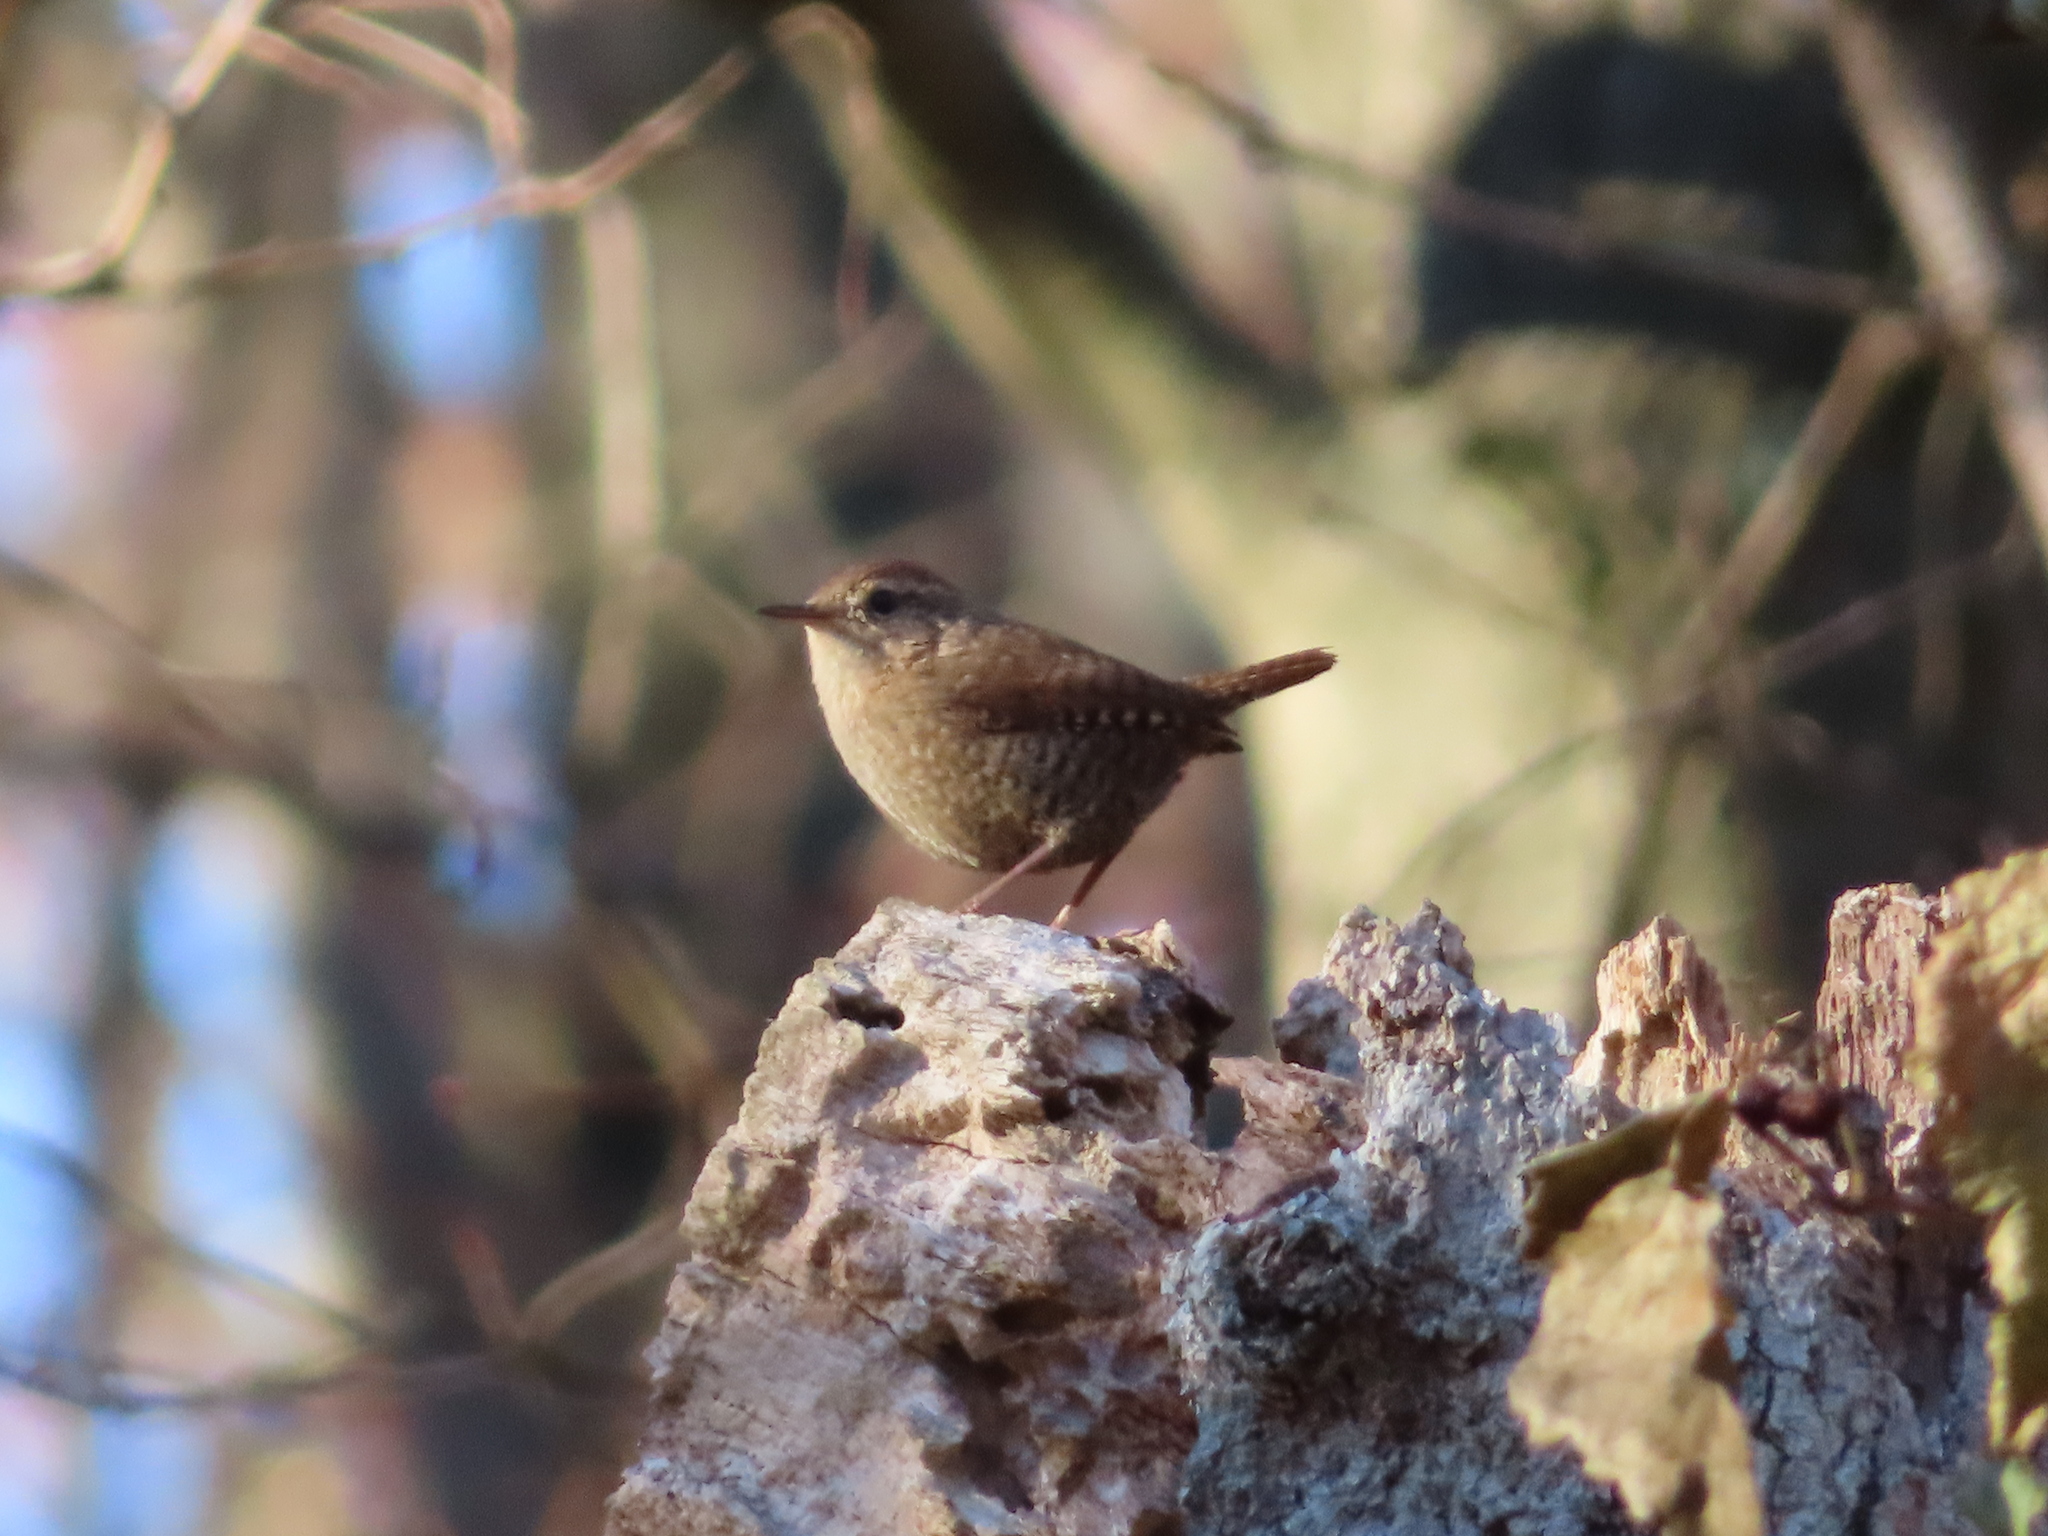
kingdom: Animalia
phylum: Chordata
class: Aves
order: Passeriformes
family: Troglodytidae
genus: Troglodytes
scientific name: Troglodytes hiemalis
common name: Winter wren
